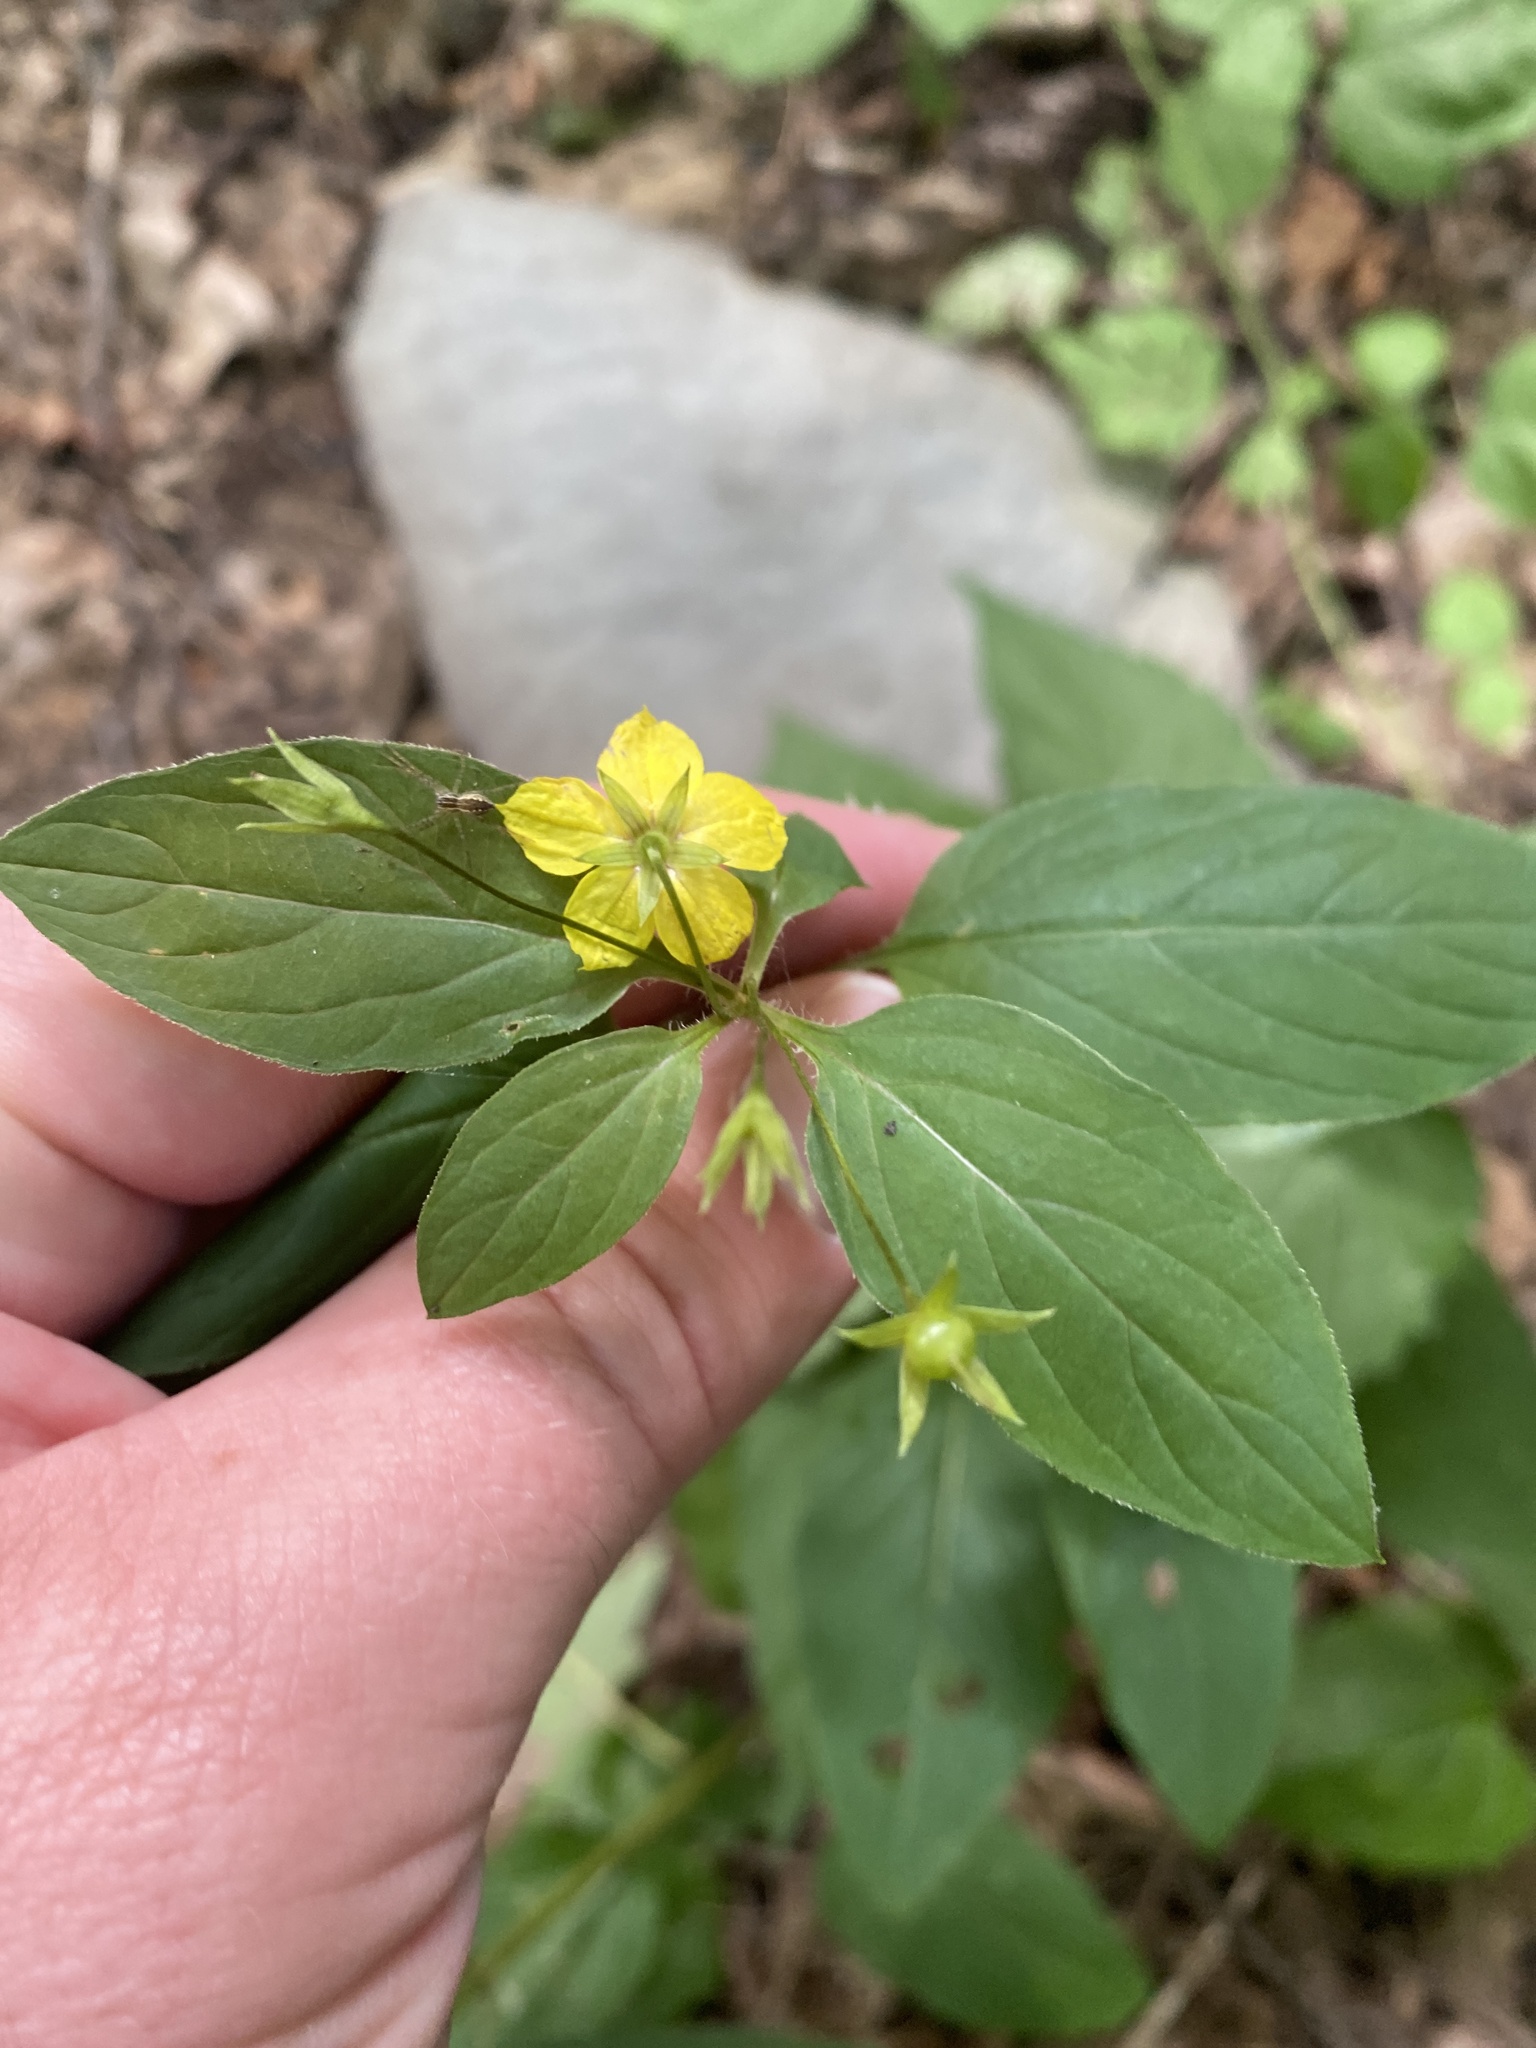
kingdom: Plantae
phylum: Tracheophyta
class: Magnoliopsida
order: Ericales
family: Primulaceae
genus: Lysimachia
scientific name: Lysimachia ciliata
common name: Fringed loosestrife
